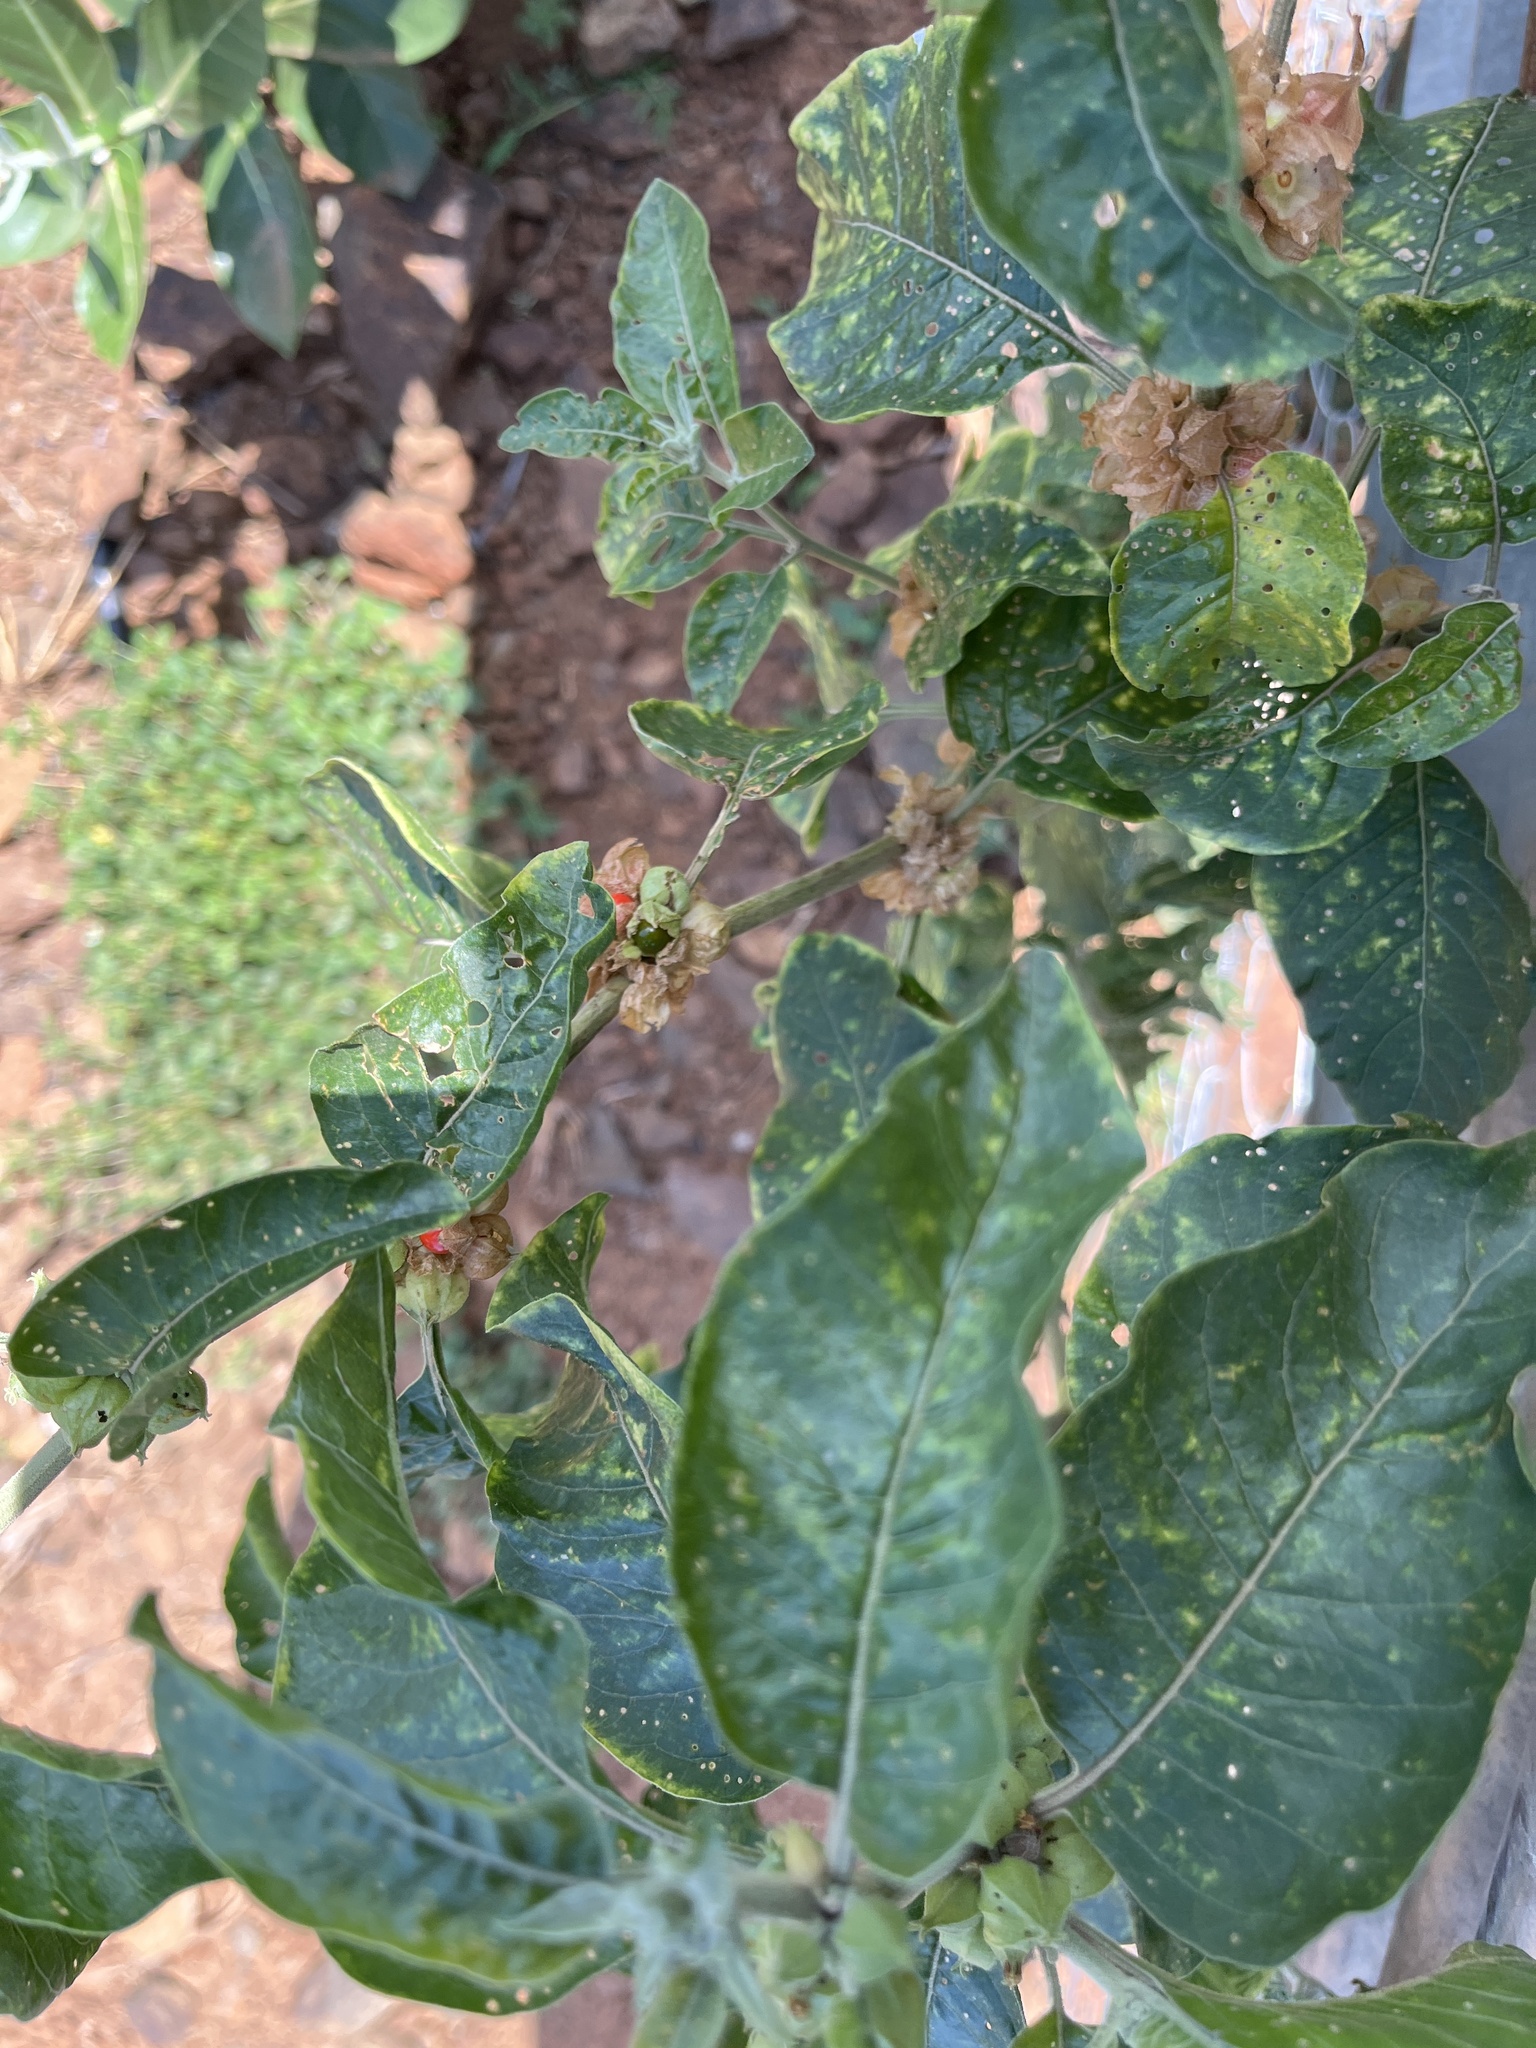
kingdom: Plantae
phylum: Tracheophyta
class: Magnoliopsida
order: Solanales
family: Solanaceae
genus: Withania
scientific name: Withania somnifera
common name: Winter-cherry
